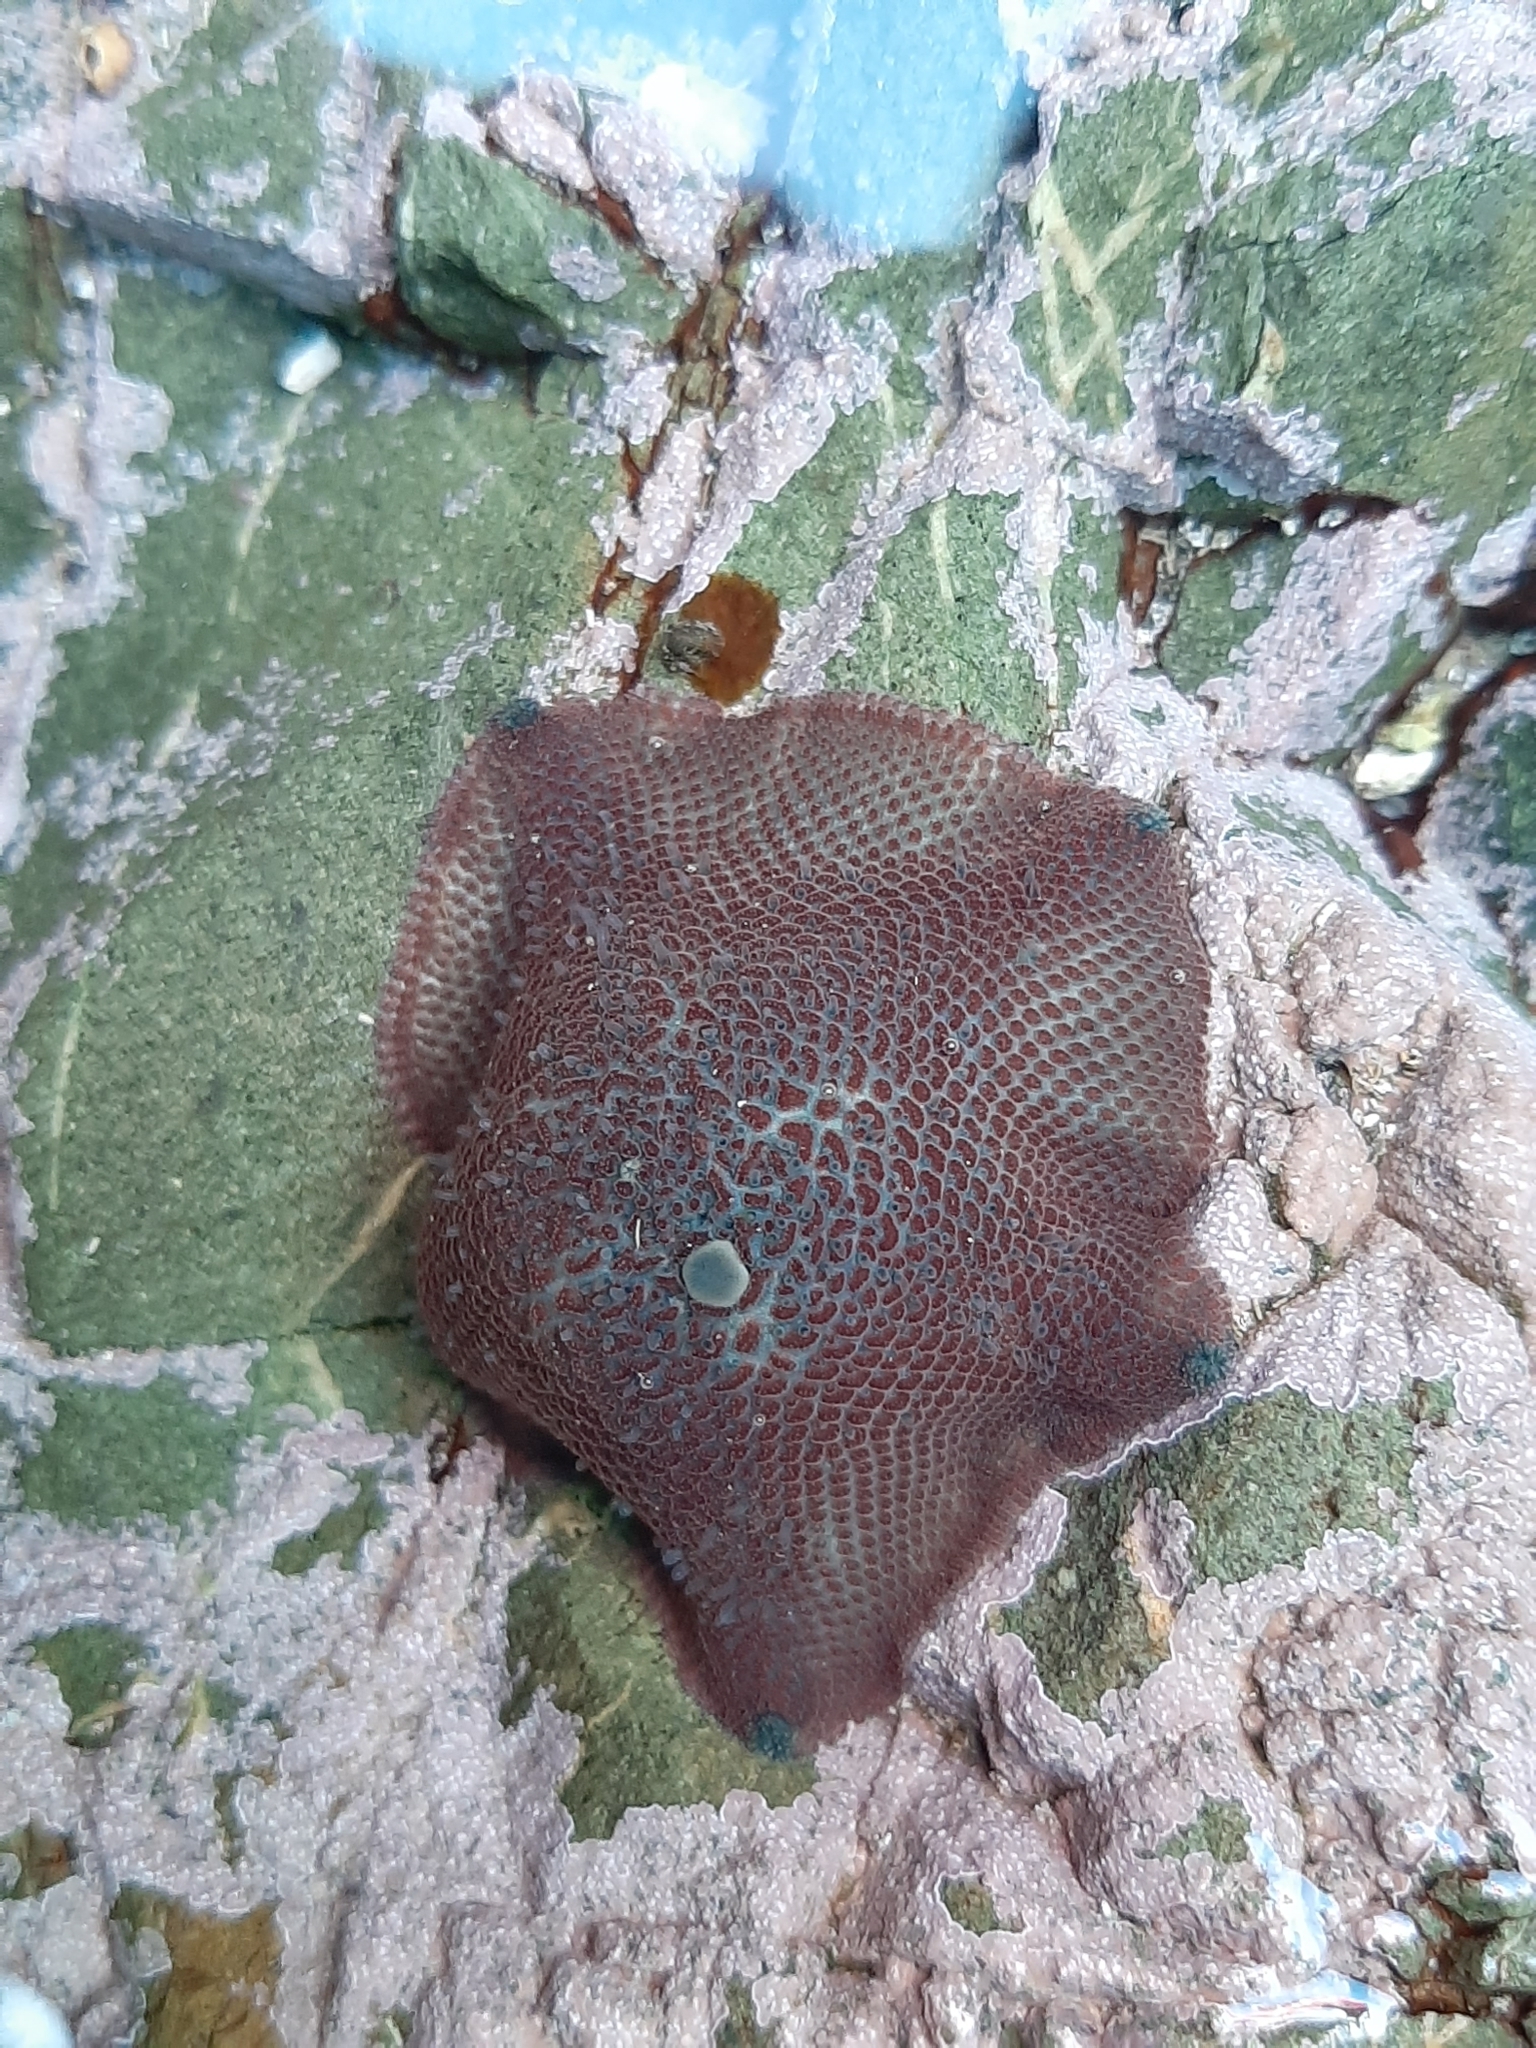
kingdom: Animalia
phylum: Echinodermata
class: Asteroidea
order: Valvatida
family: Asterinidae
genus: Patiriella
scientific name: Patiriella regularis
